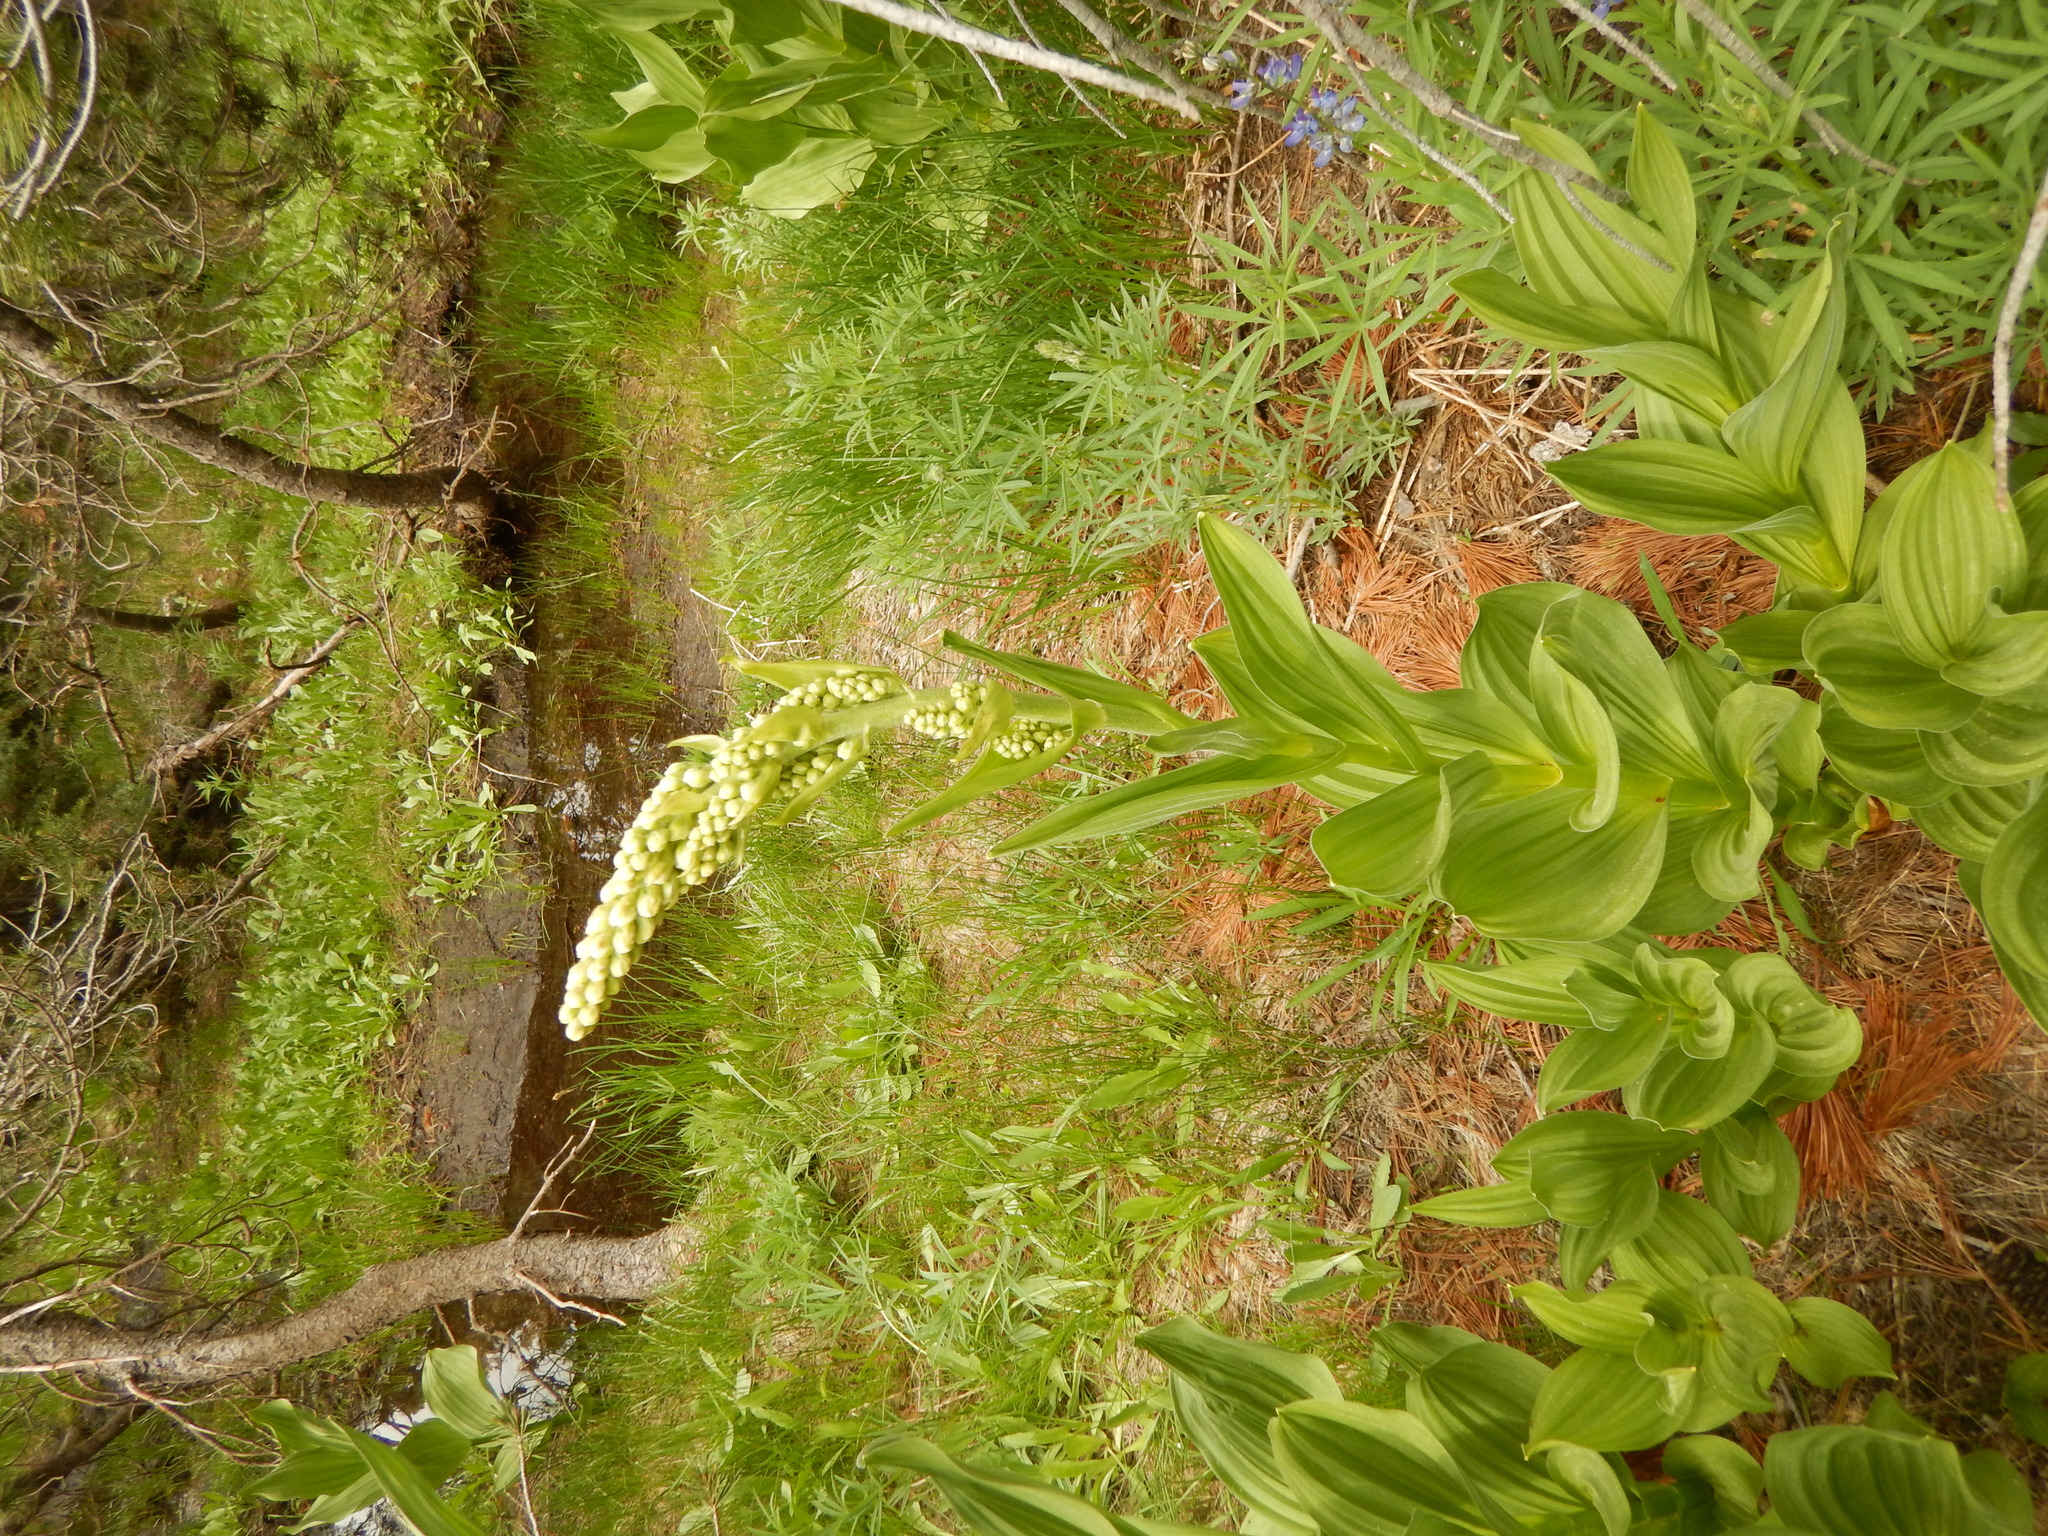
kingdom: Plantae
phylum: Tracheophyta
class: Liliopsida
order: Liliales
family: Melanthiaceae
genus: Veratrum
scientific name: Veratrum californicum
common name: California veratrum
